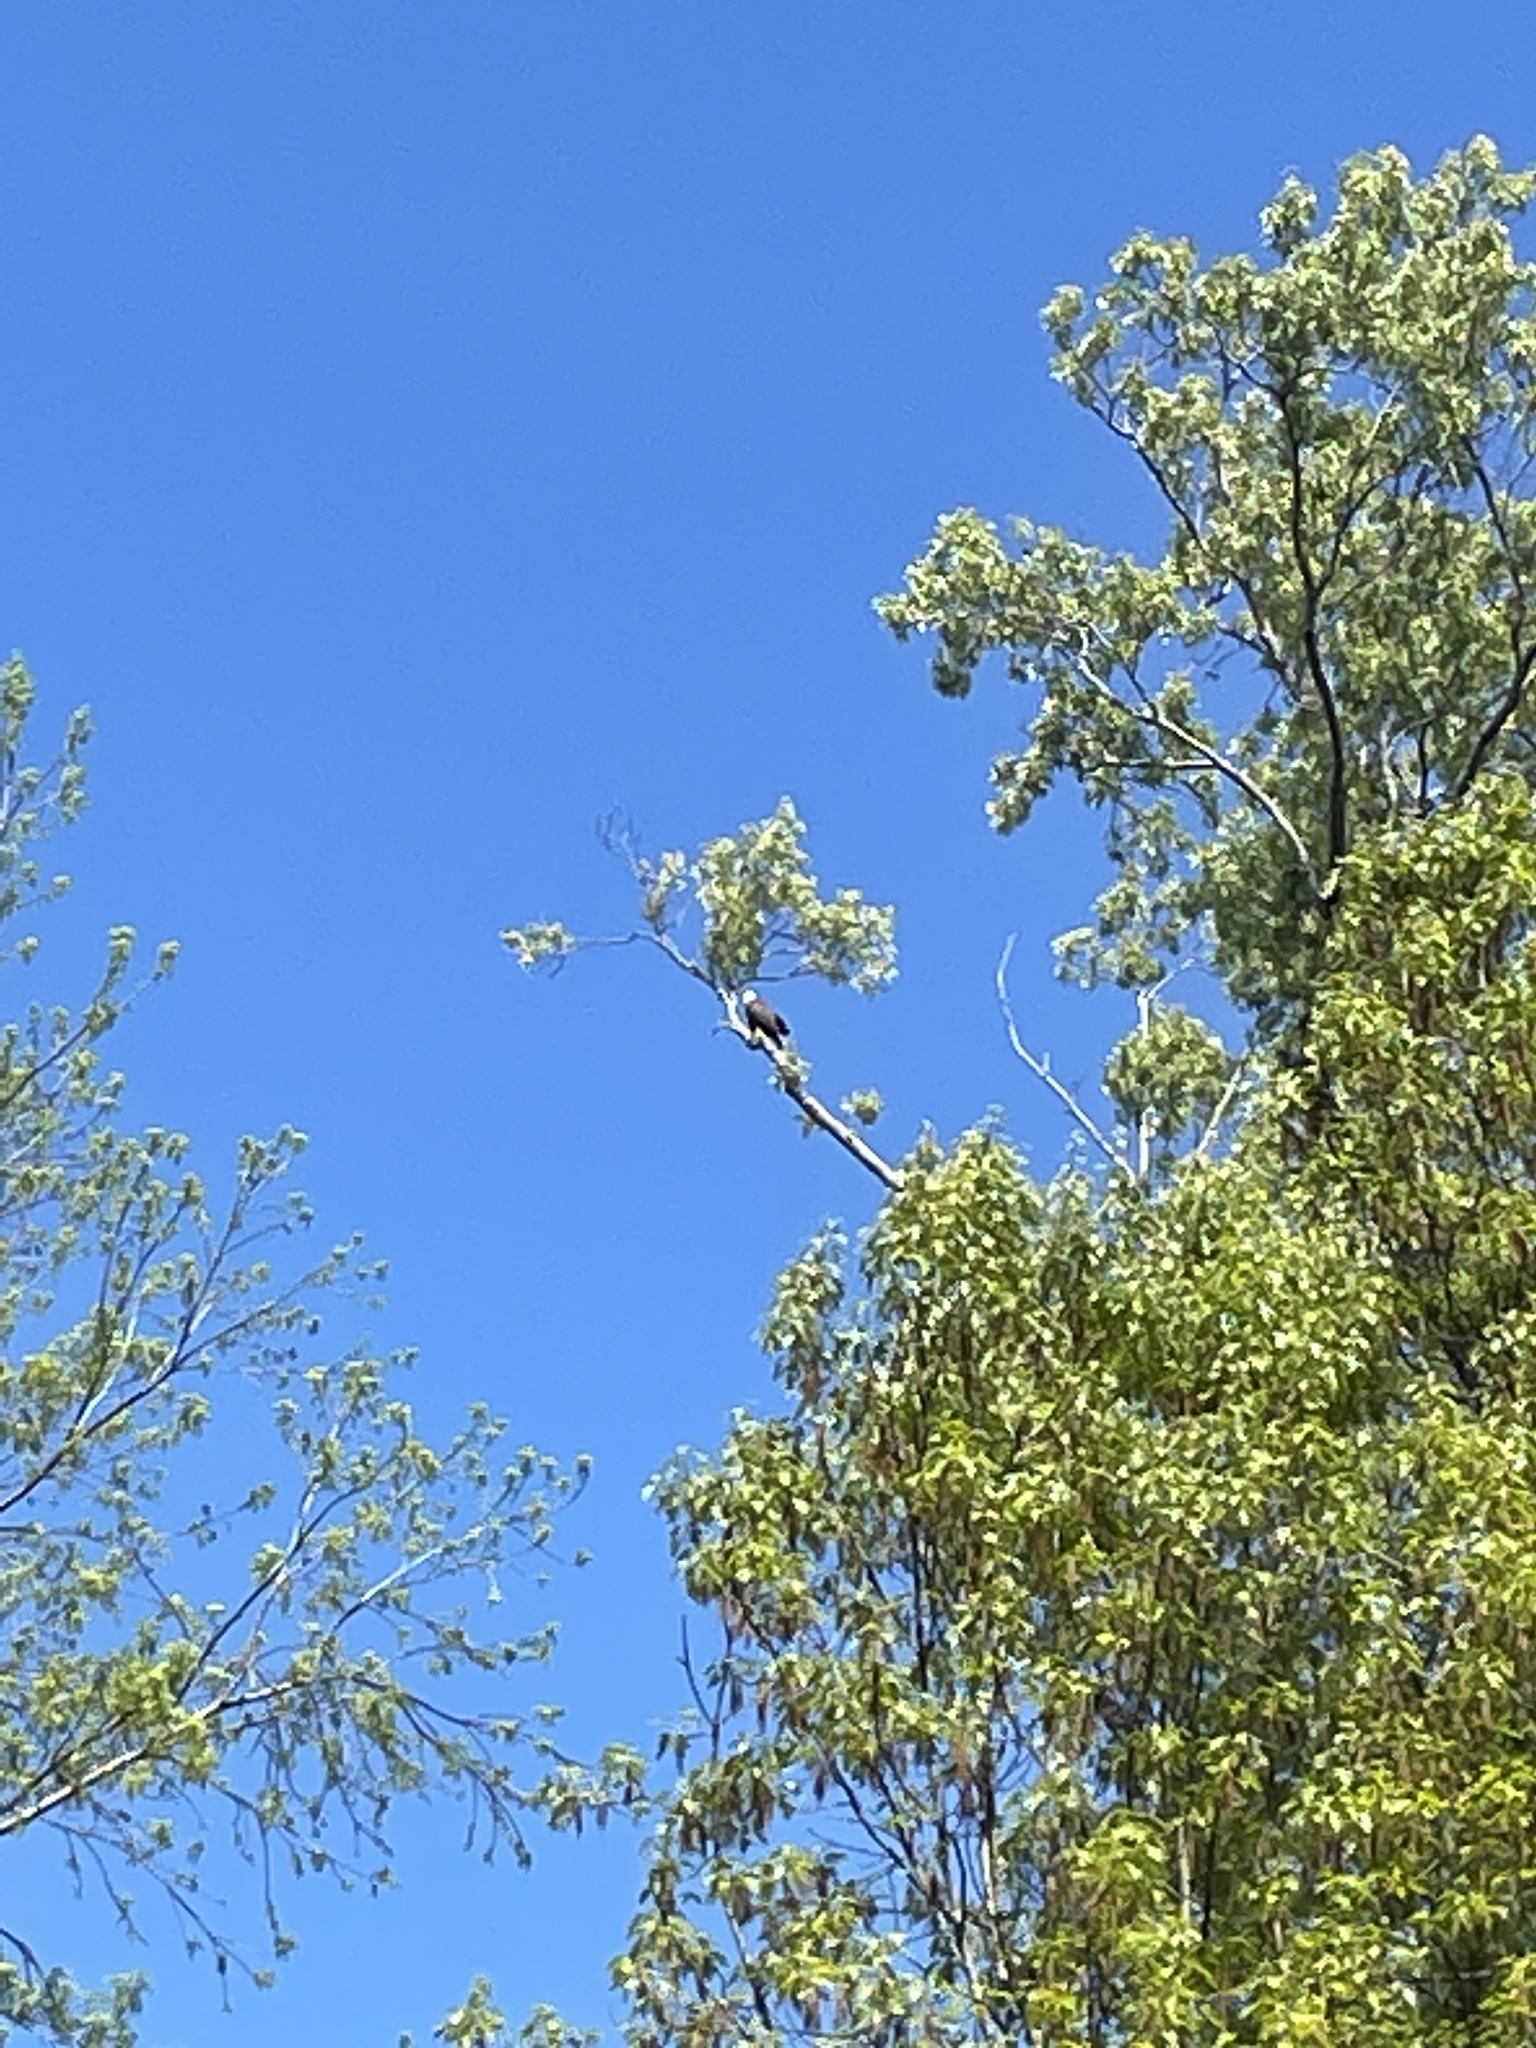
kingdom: Animalia
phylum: Chordata
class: Aves
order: Accipitriformes
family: Accipitridae
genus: Haliaeetus
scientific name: Haliaeetus leucocephalus
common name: Bald eagle
